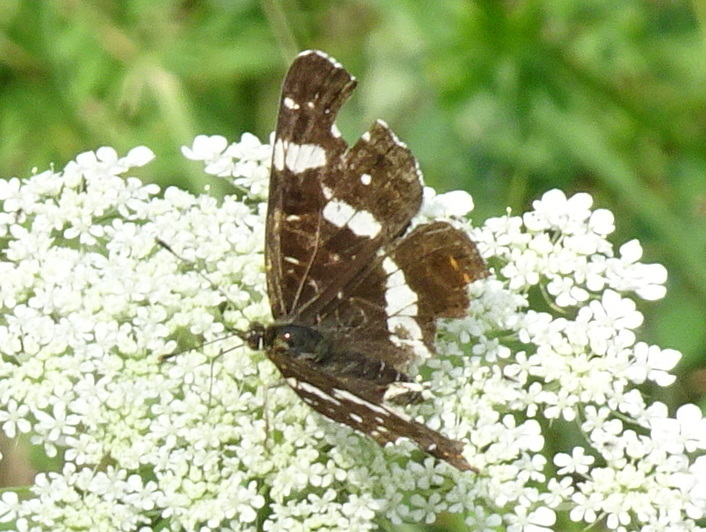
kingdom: Animalia
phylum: Arthropoda
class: Insecta
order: Lepidoptera
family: Nymphalidae
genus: Araschnia
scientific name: Araschnia levana
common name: Map butterfly
